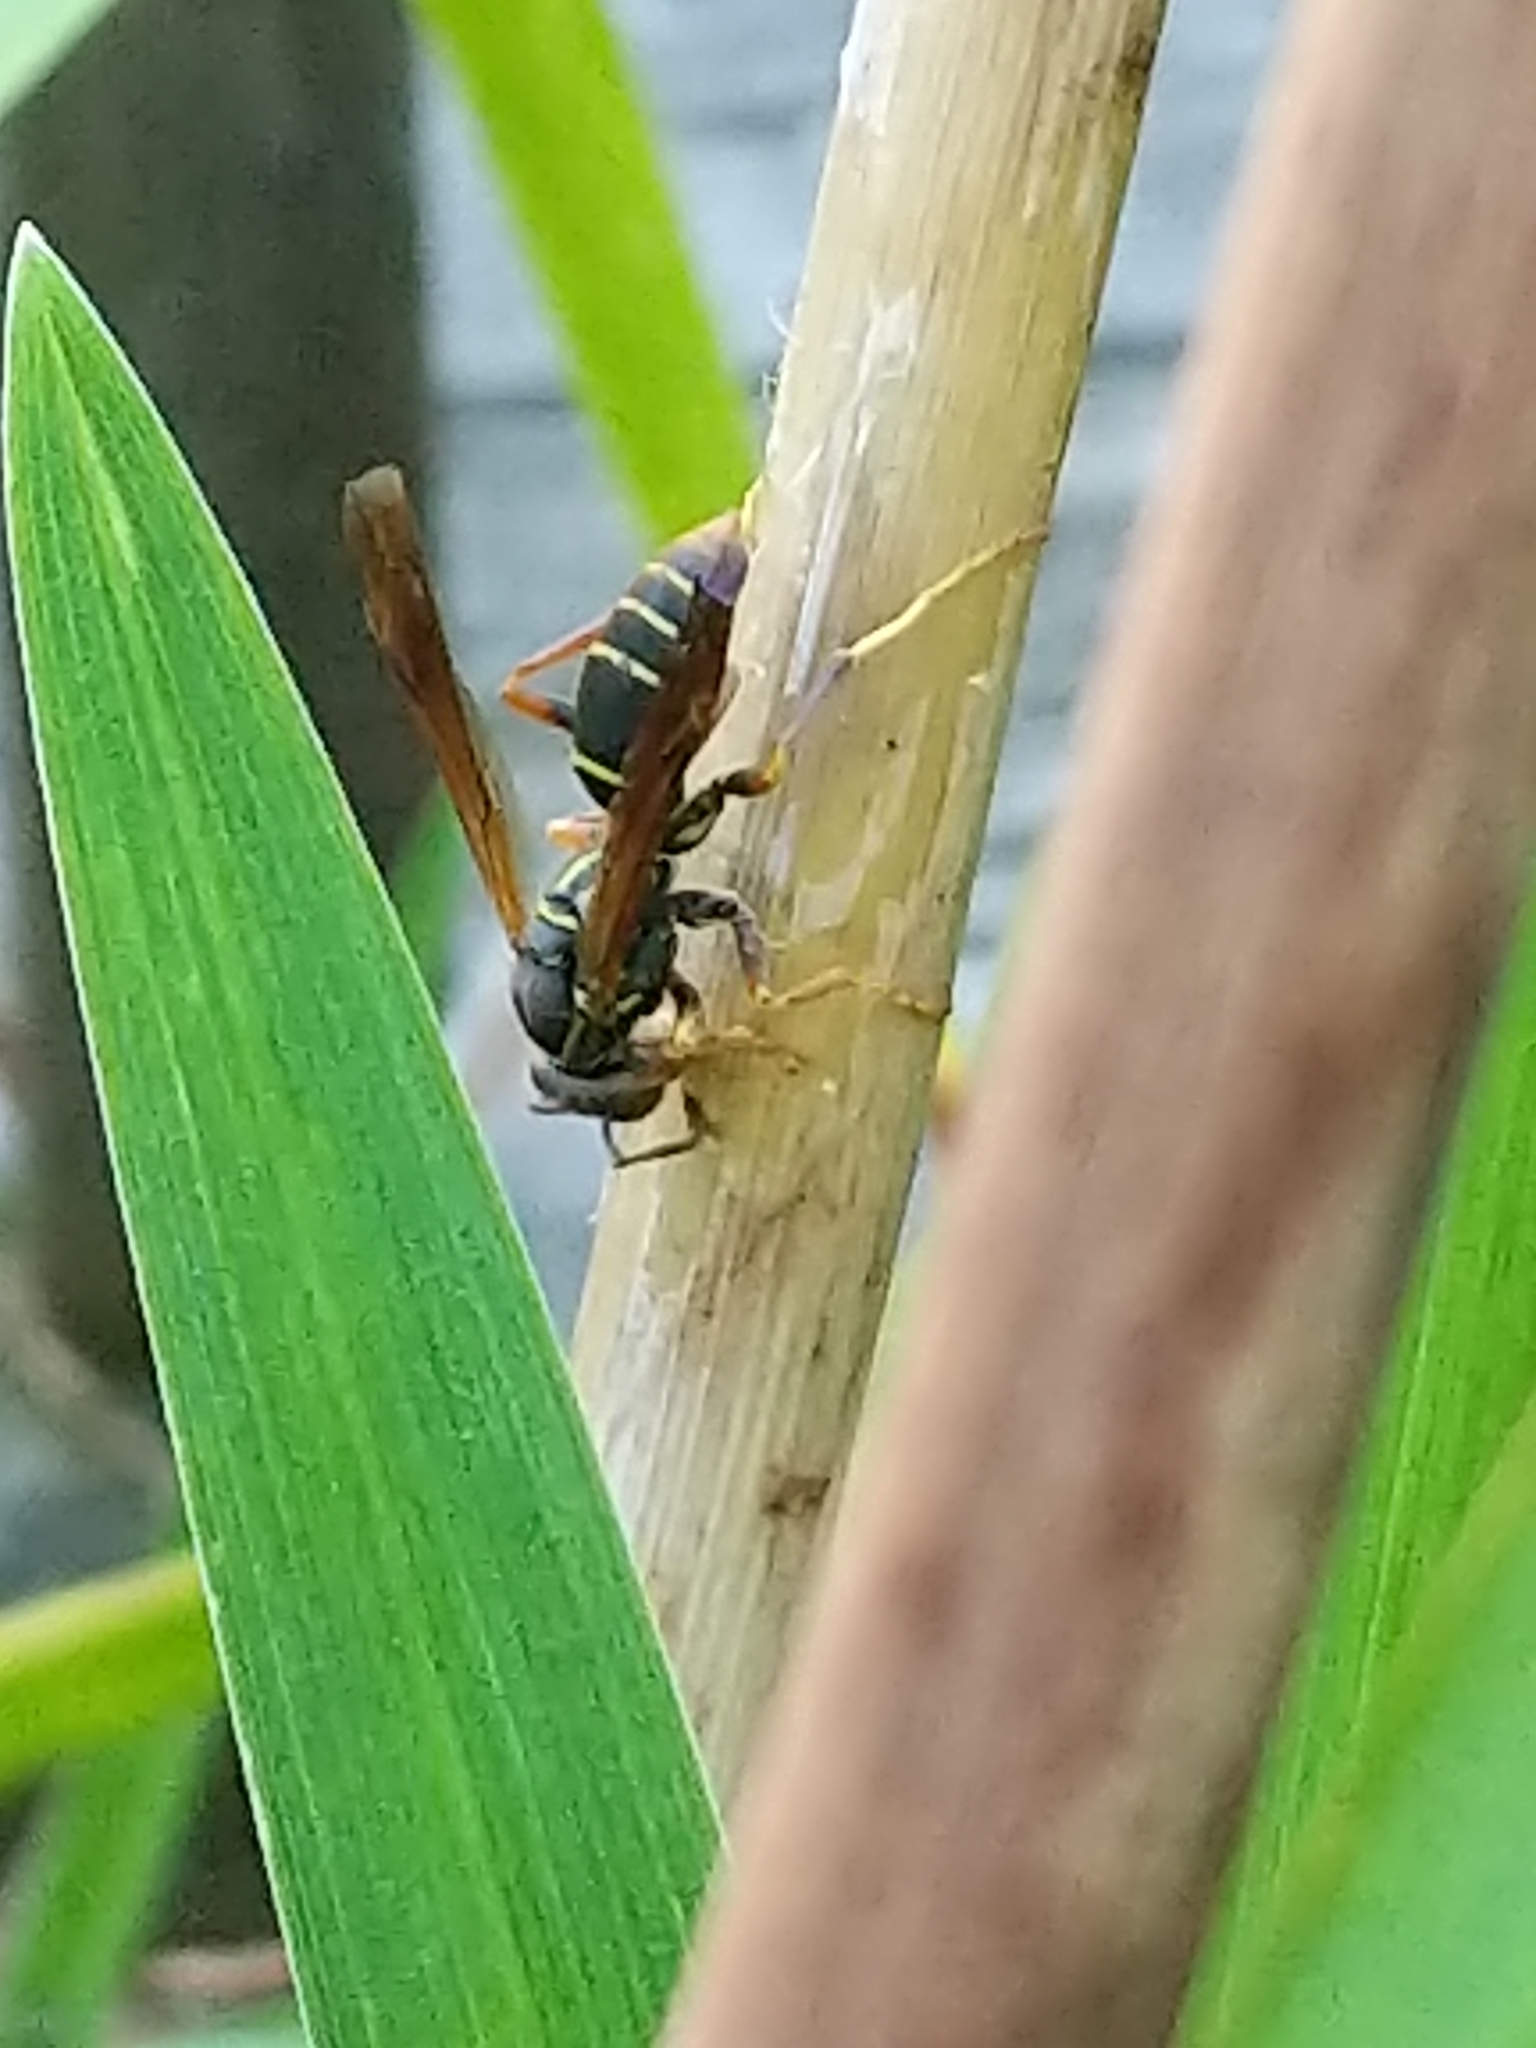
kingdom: Animalia
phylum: Arthropoda
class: Insecta
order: Hymenoptera
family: Eumenidae
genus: Polistes
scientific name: Polistes fuscatus
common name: Dark paper wasp
